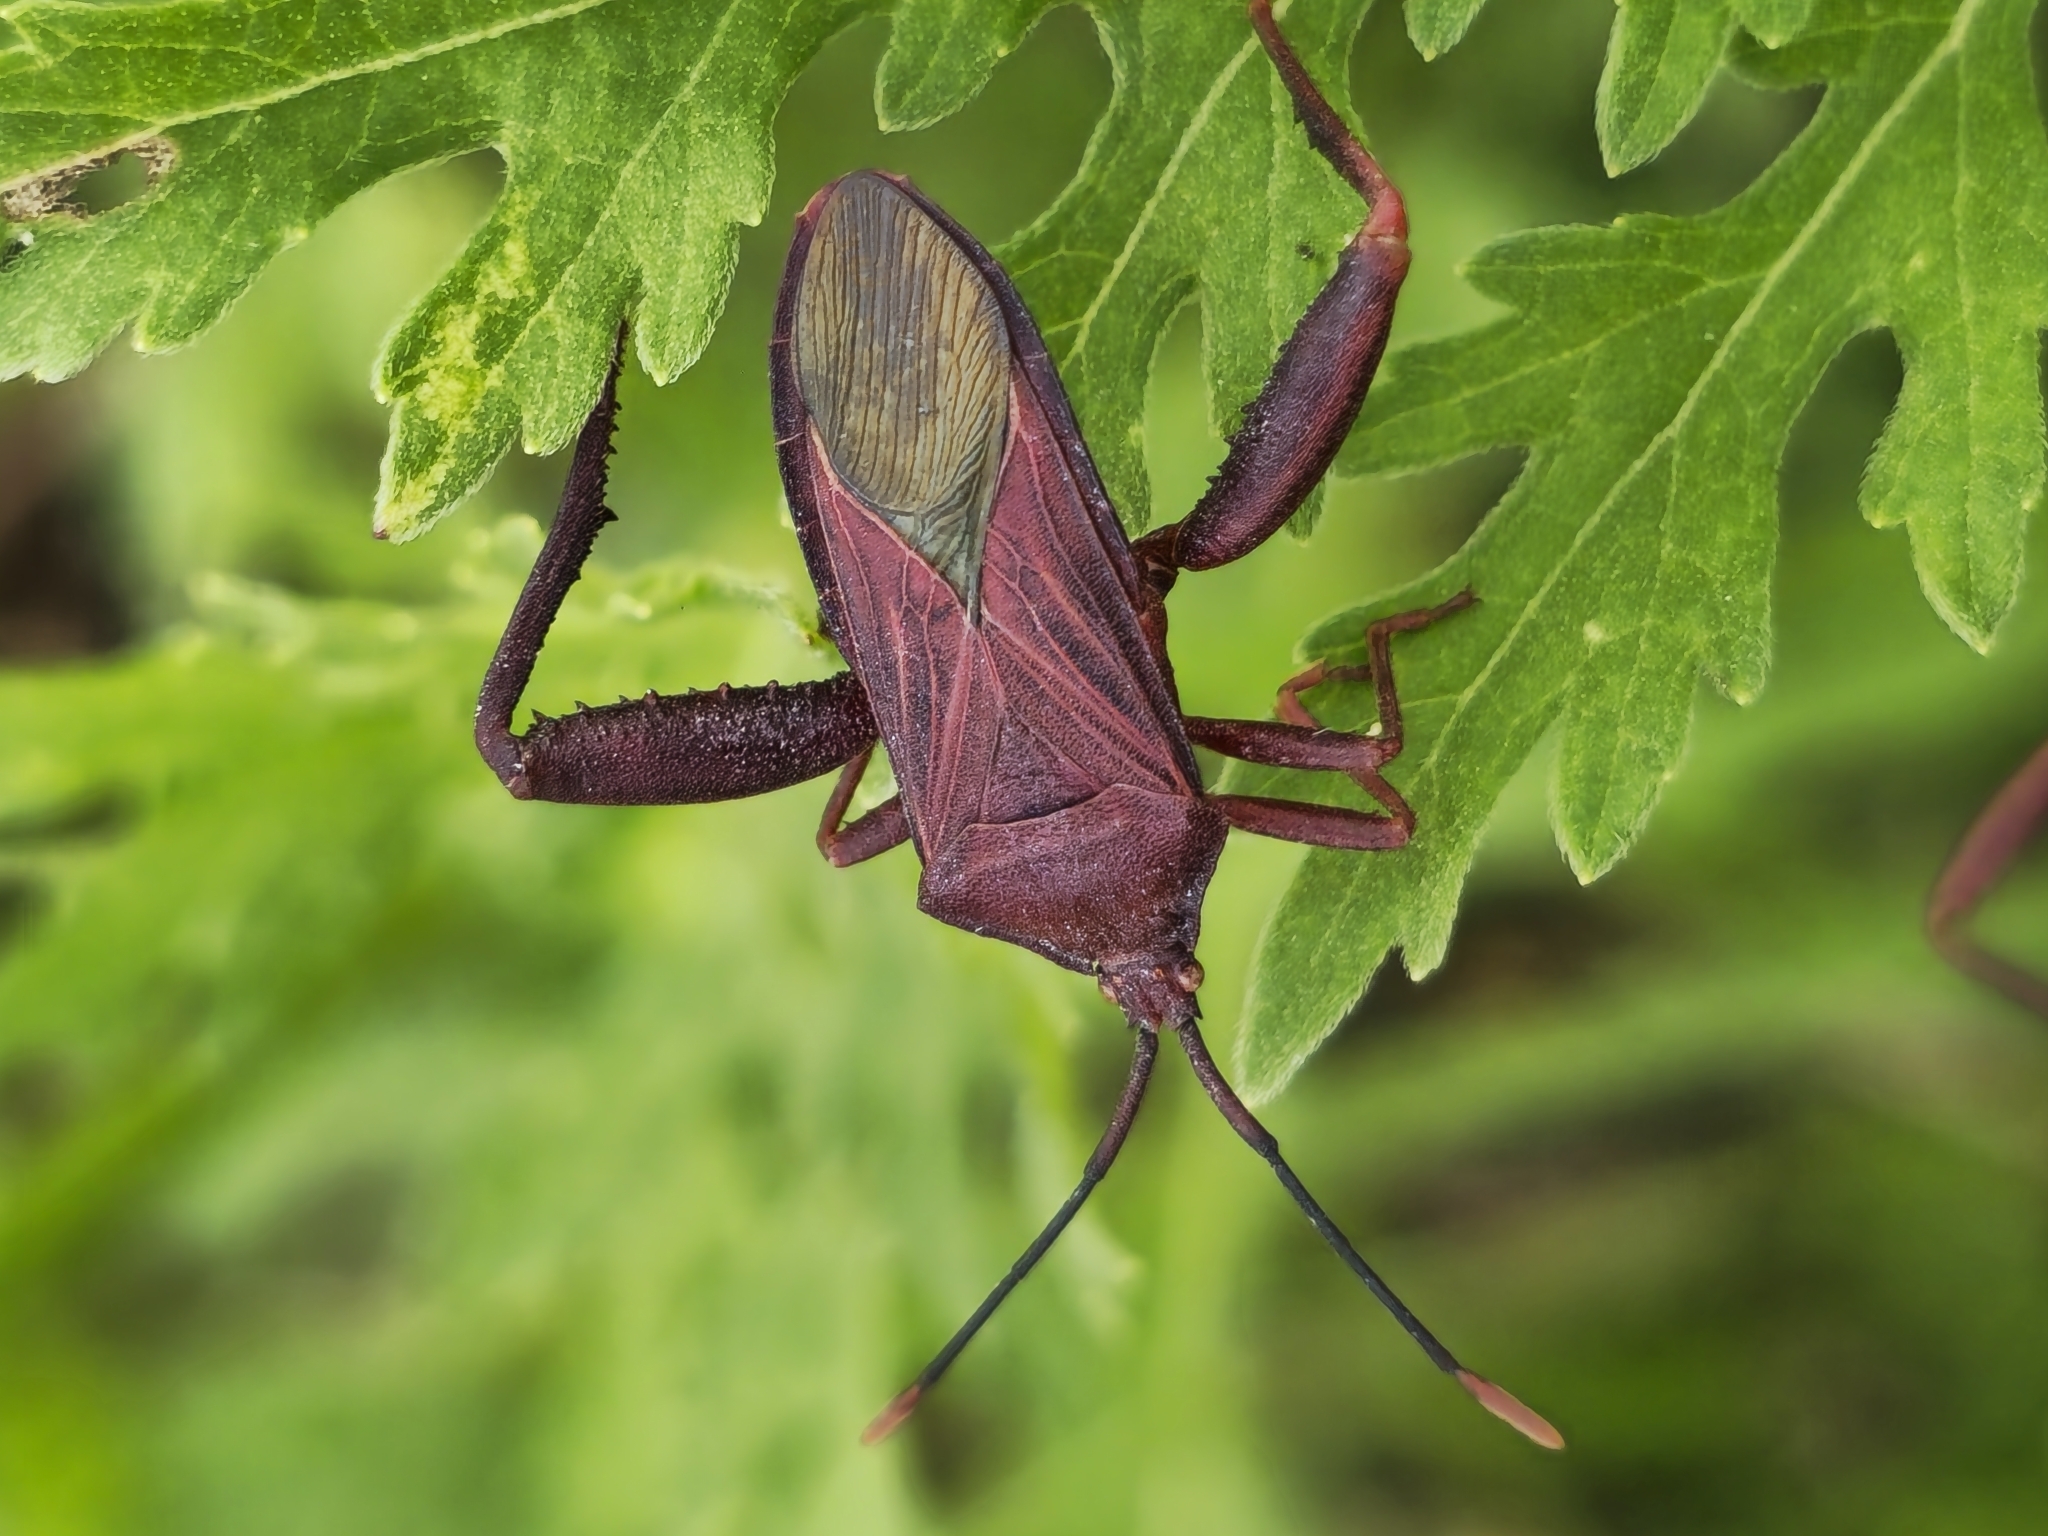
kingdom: Animalia
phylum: Arthropoda
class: Insecta
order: Hemiptera
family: Coreidae
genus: Athaumastus
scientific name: Athaumastus haematicus
